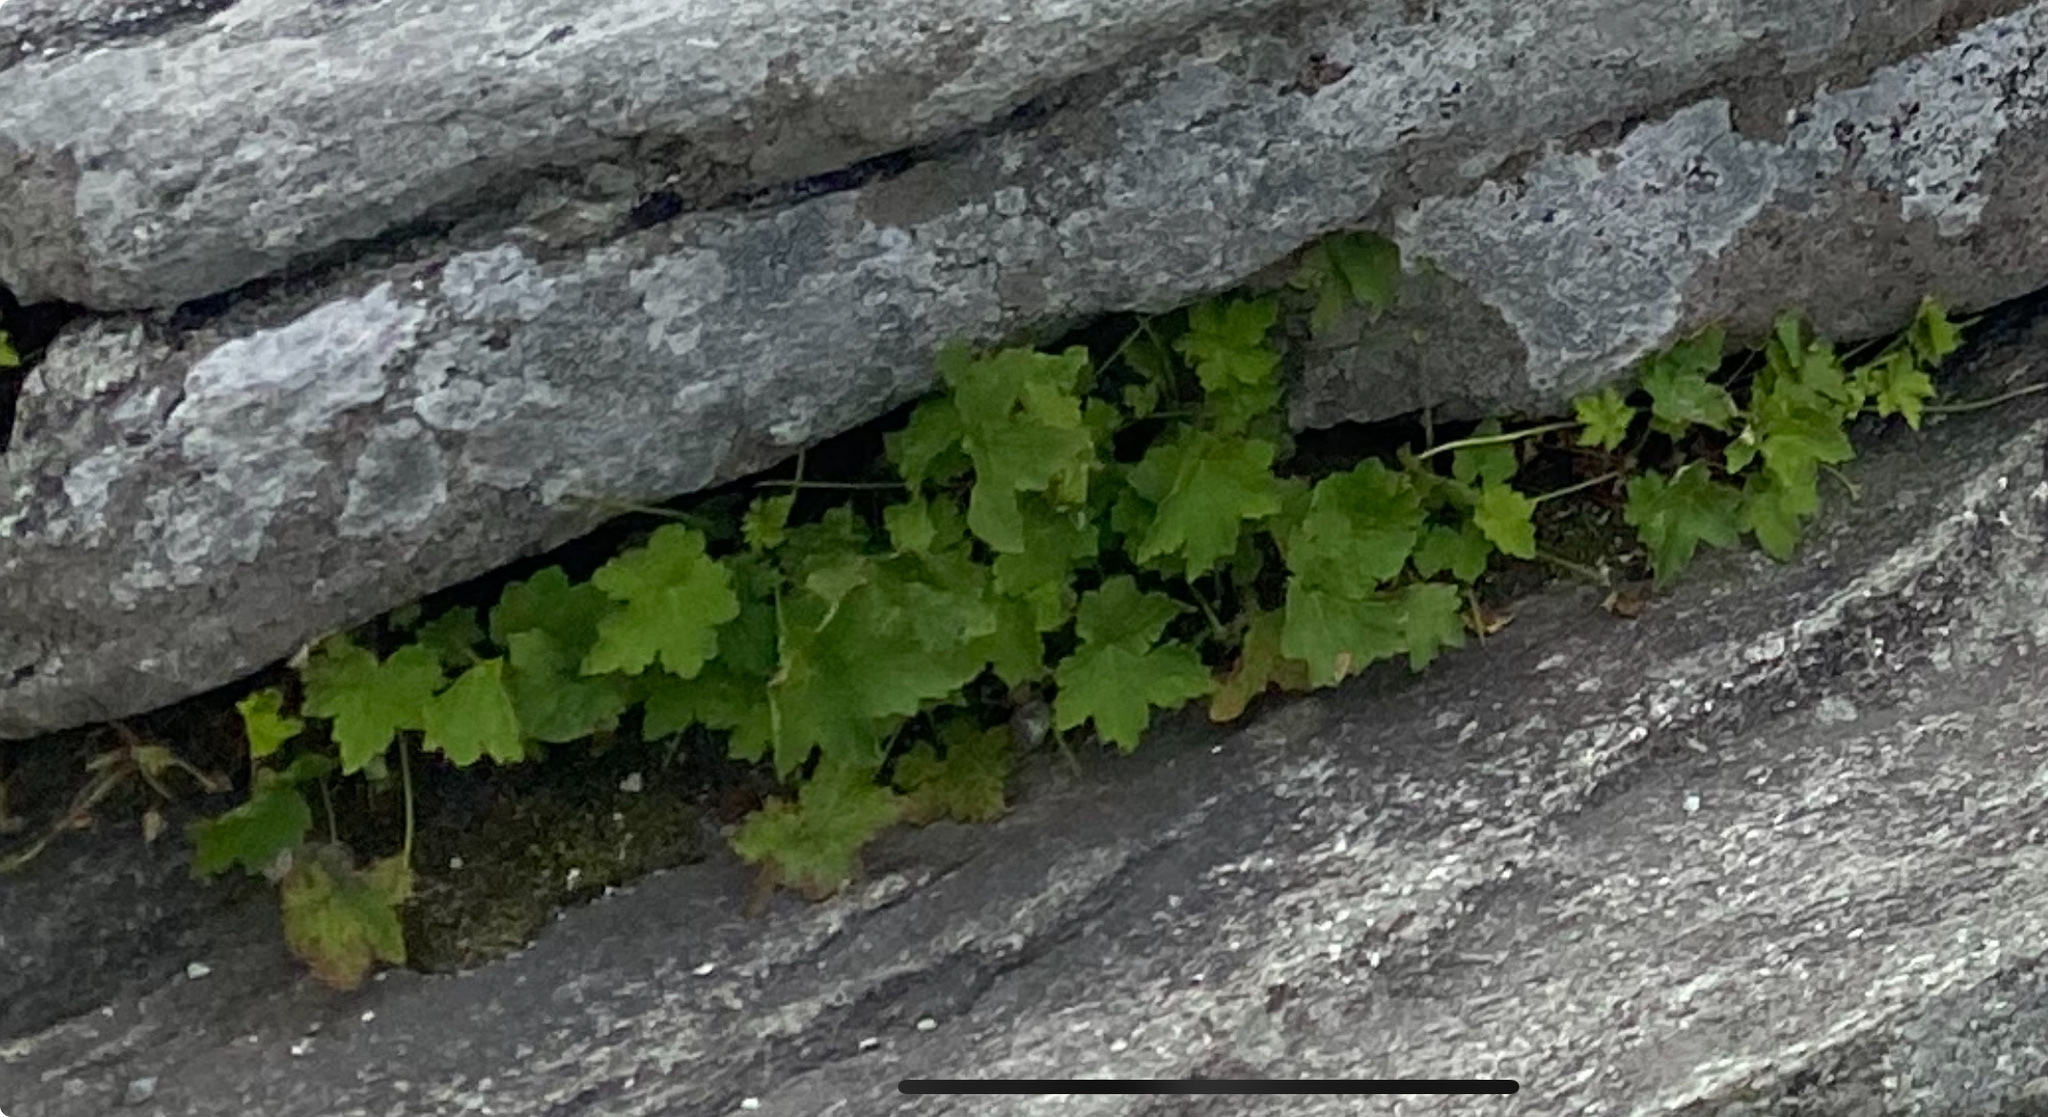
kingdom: Plantae
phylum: Tracheophyta
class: Magnoliopsida
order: Saxifragales
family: Saxifragaceae
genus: Heuchera
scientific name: Heuchera villosa
